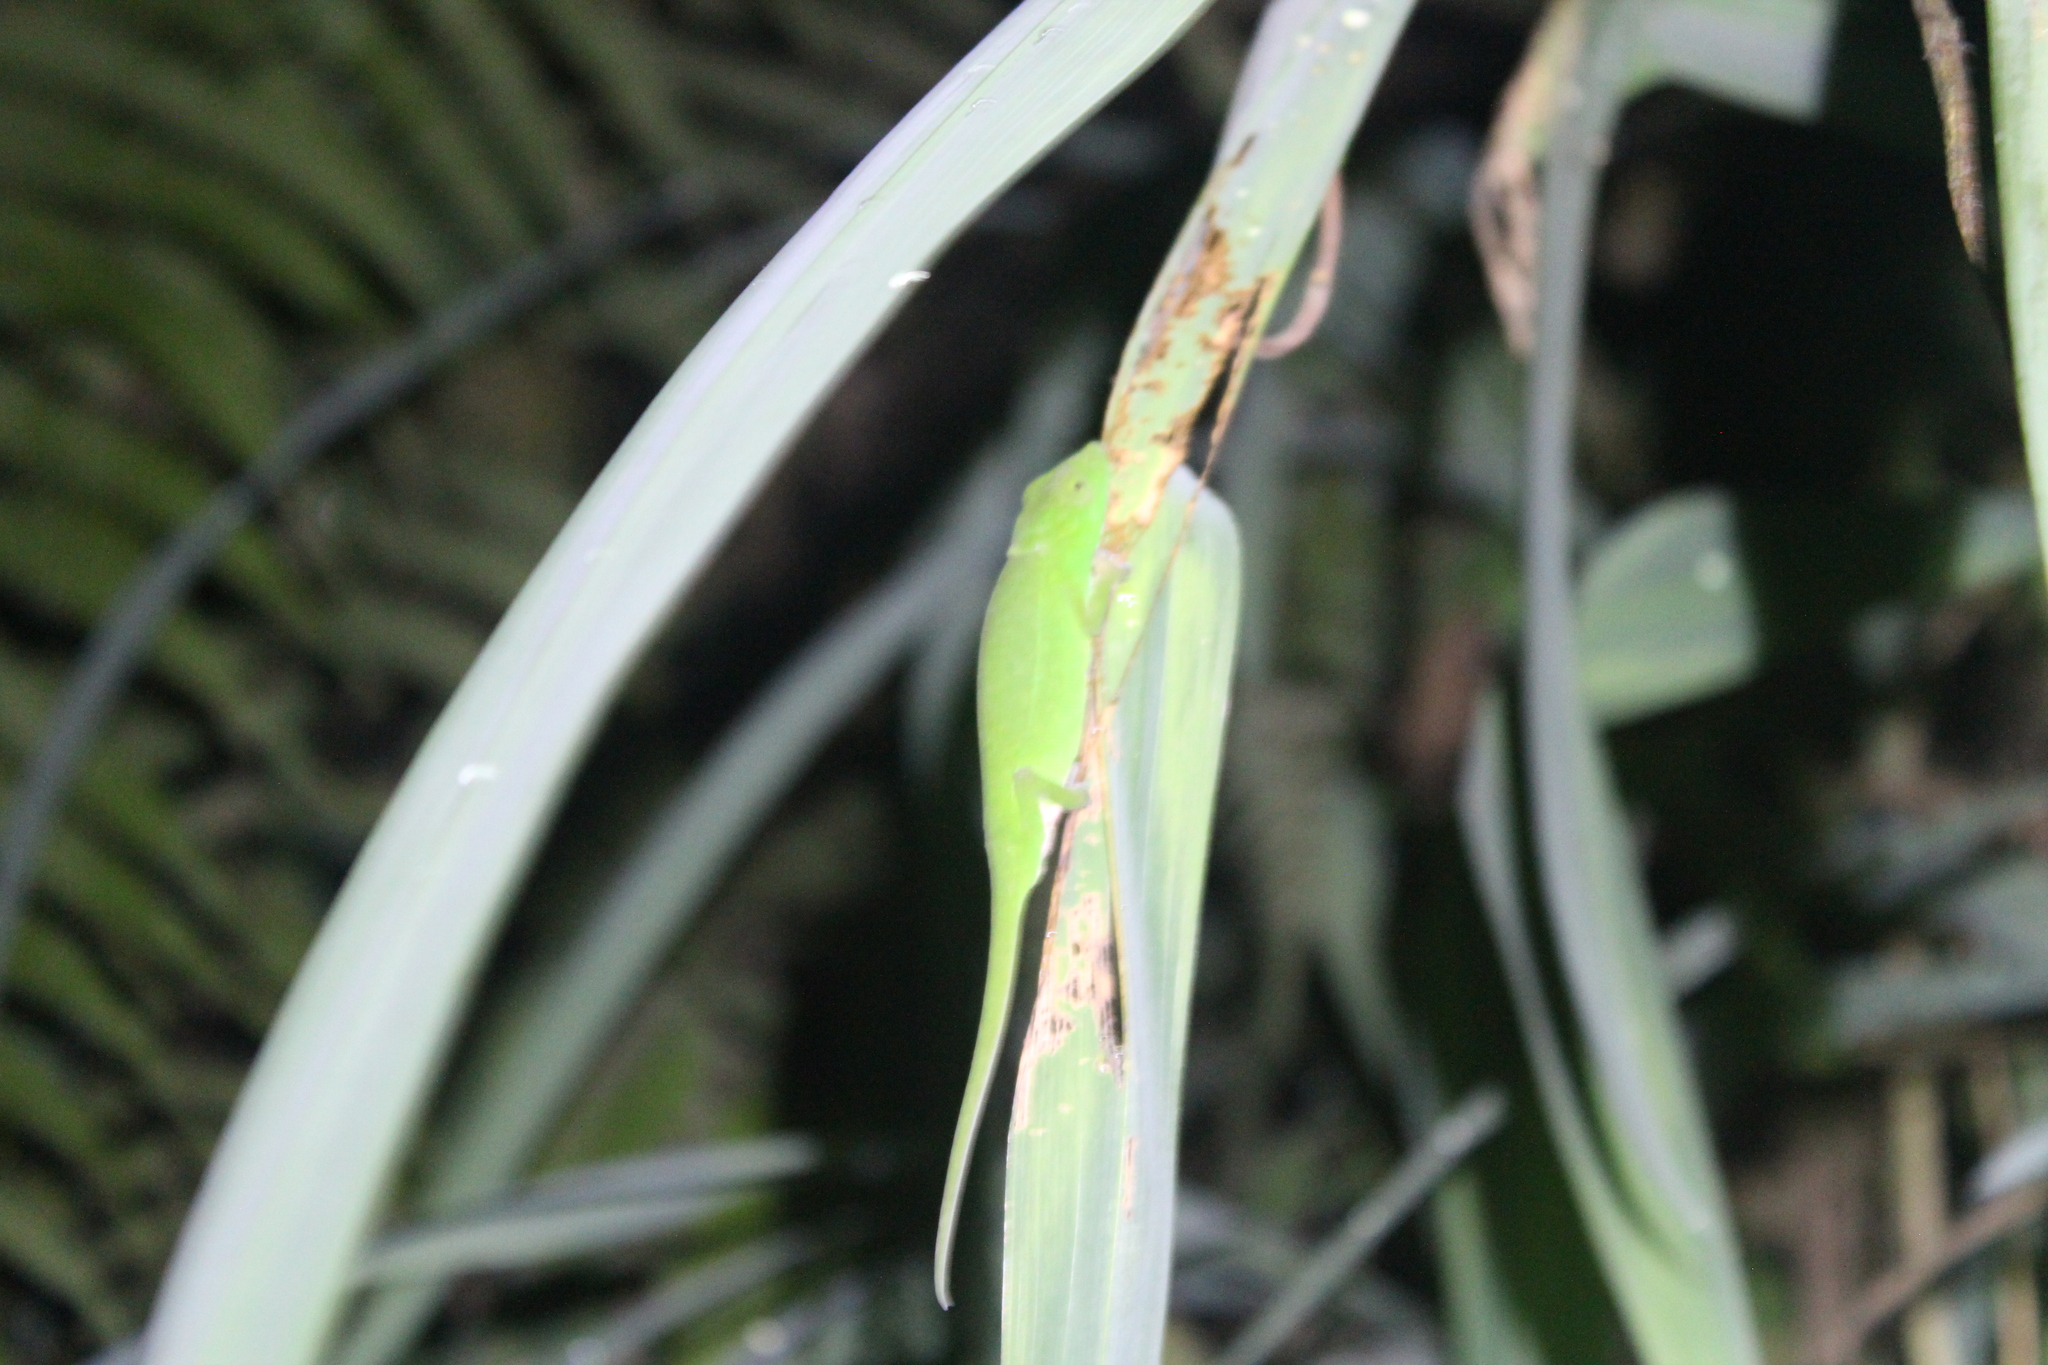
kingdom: Animalia
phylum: Chordata
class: Squamata
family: Chamaeleonidae
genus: Calumma
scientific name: Calumma glawi
